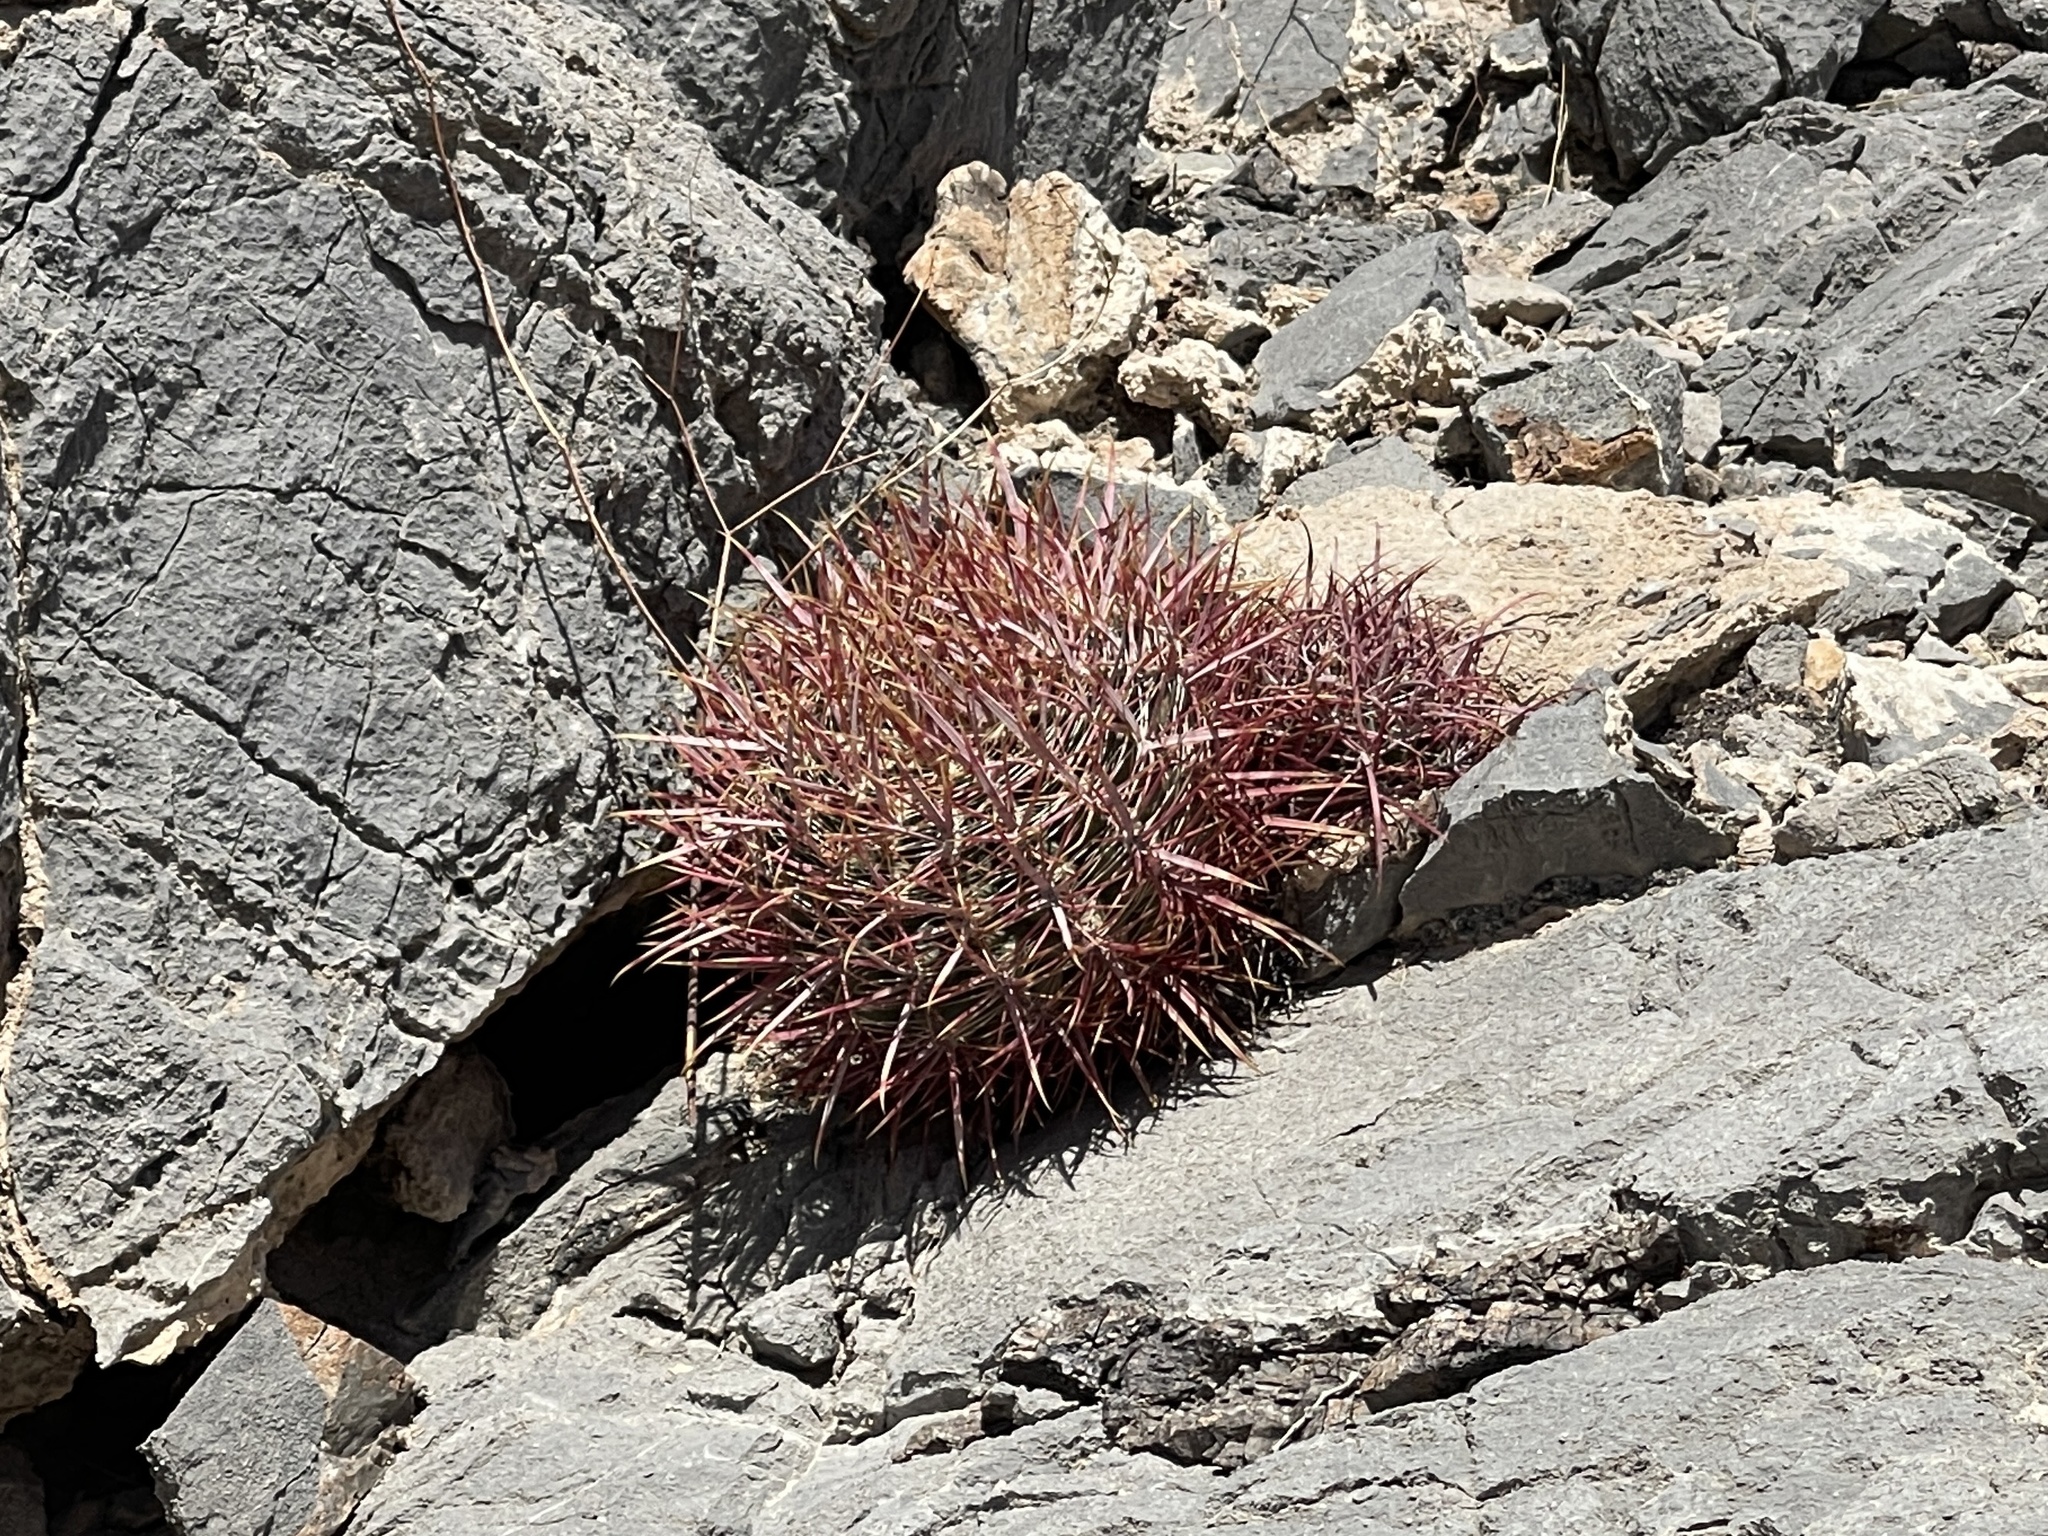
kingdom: Plantae
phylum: Tracheophyta
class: Magnoliopsida
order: Caryophyllales
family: Cactaceae
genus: Ferocactus
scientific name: Ferocactus cylindraceus
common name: California barrel cactus
